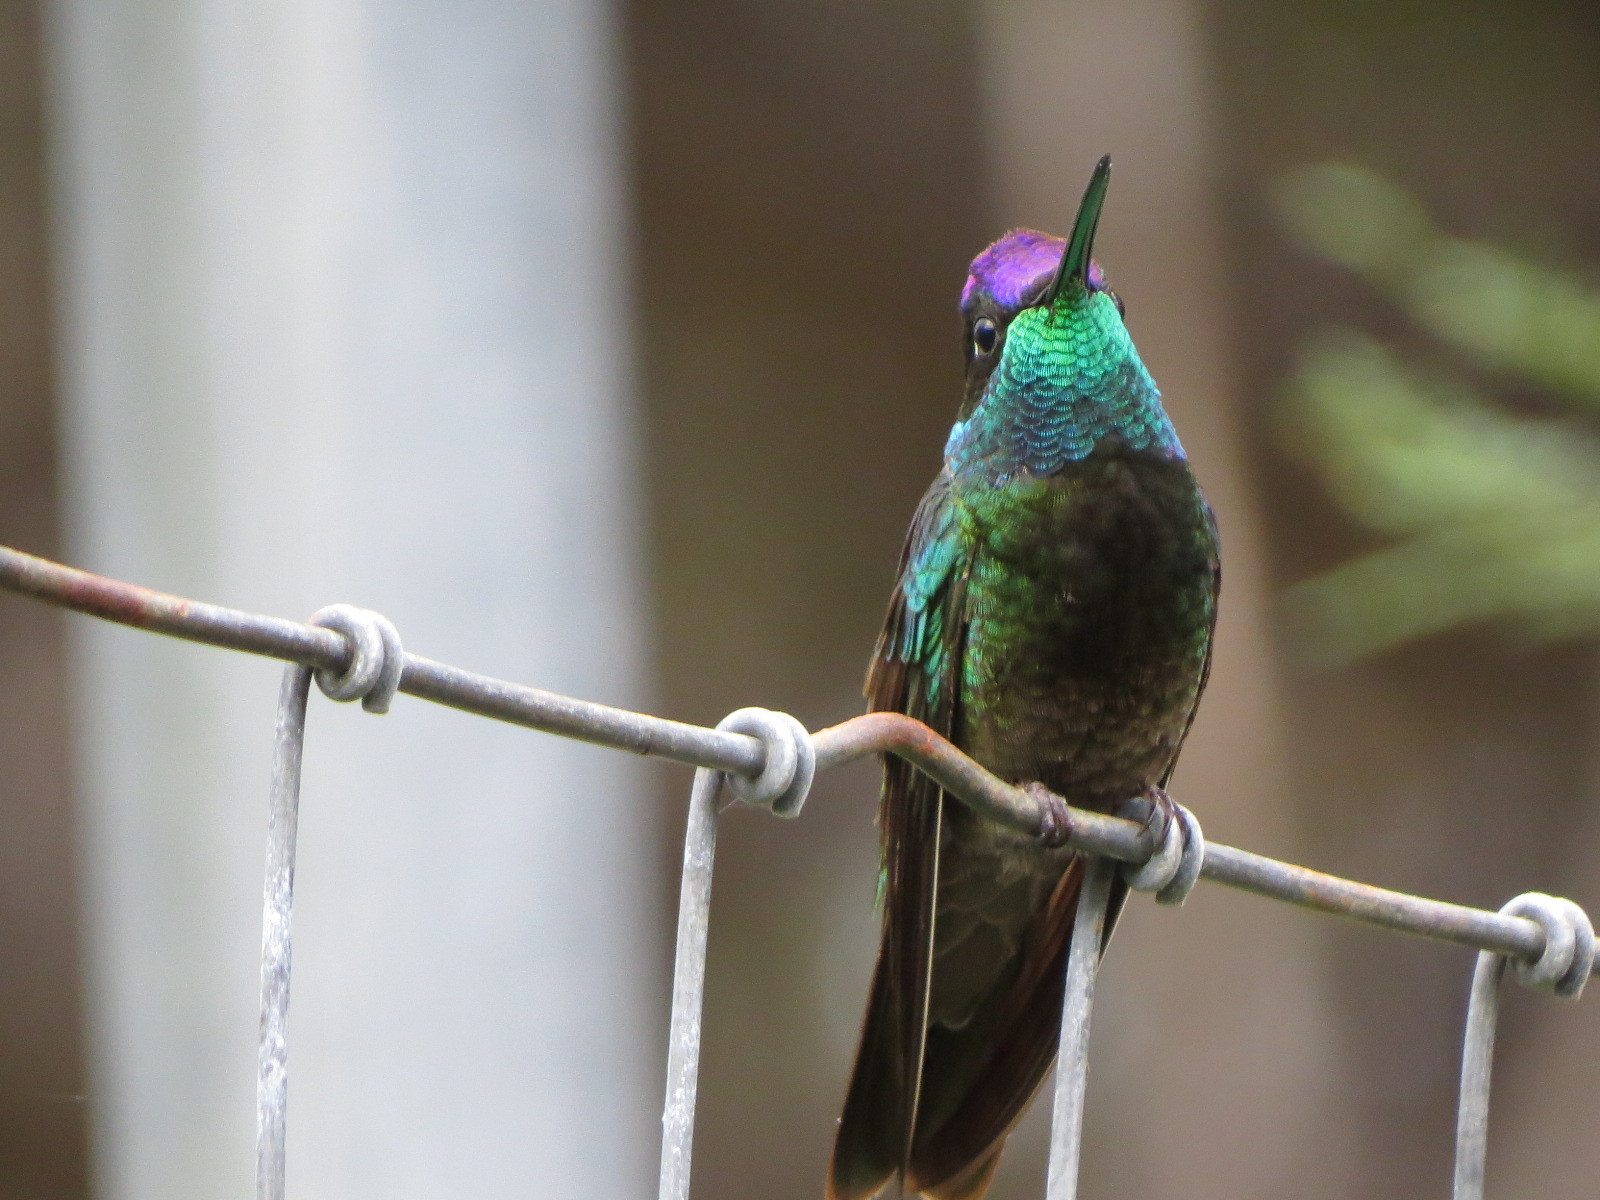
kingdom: Animalia
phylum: Chordata
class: Aves
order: Apodiformes
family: Trochilidae
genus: Eugenes
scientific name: Eugenes fulgens
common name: Magnificent hummingbird
